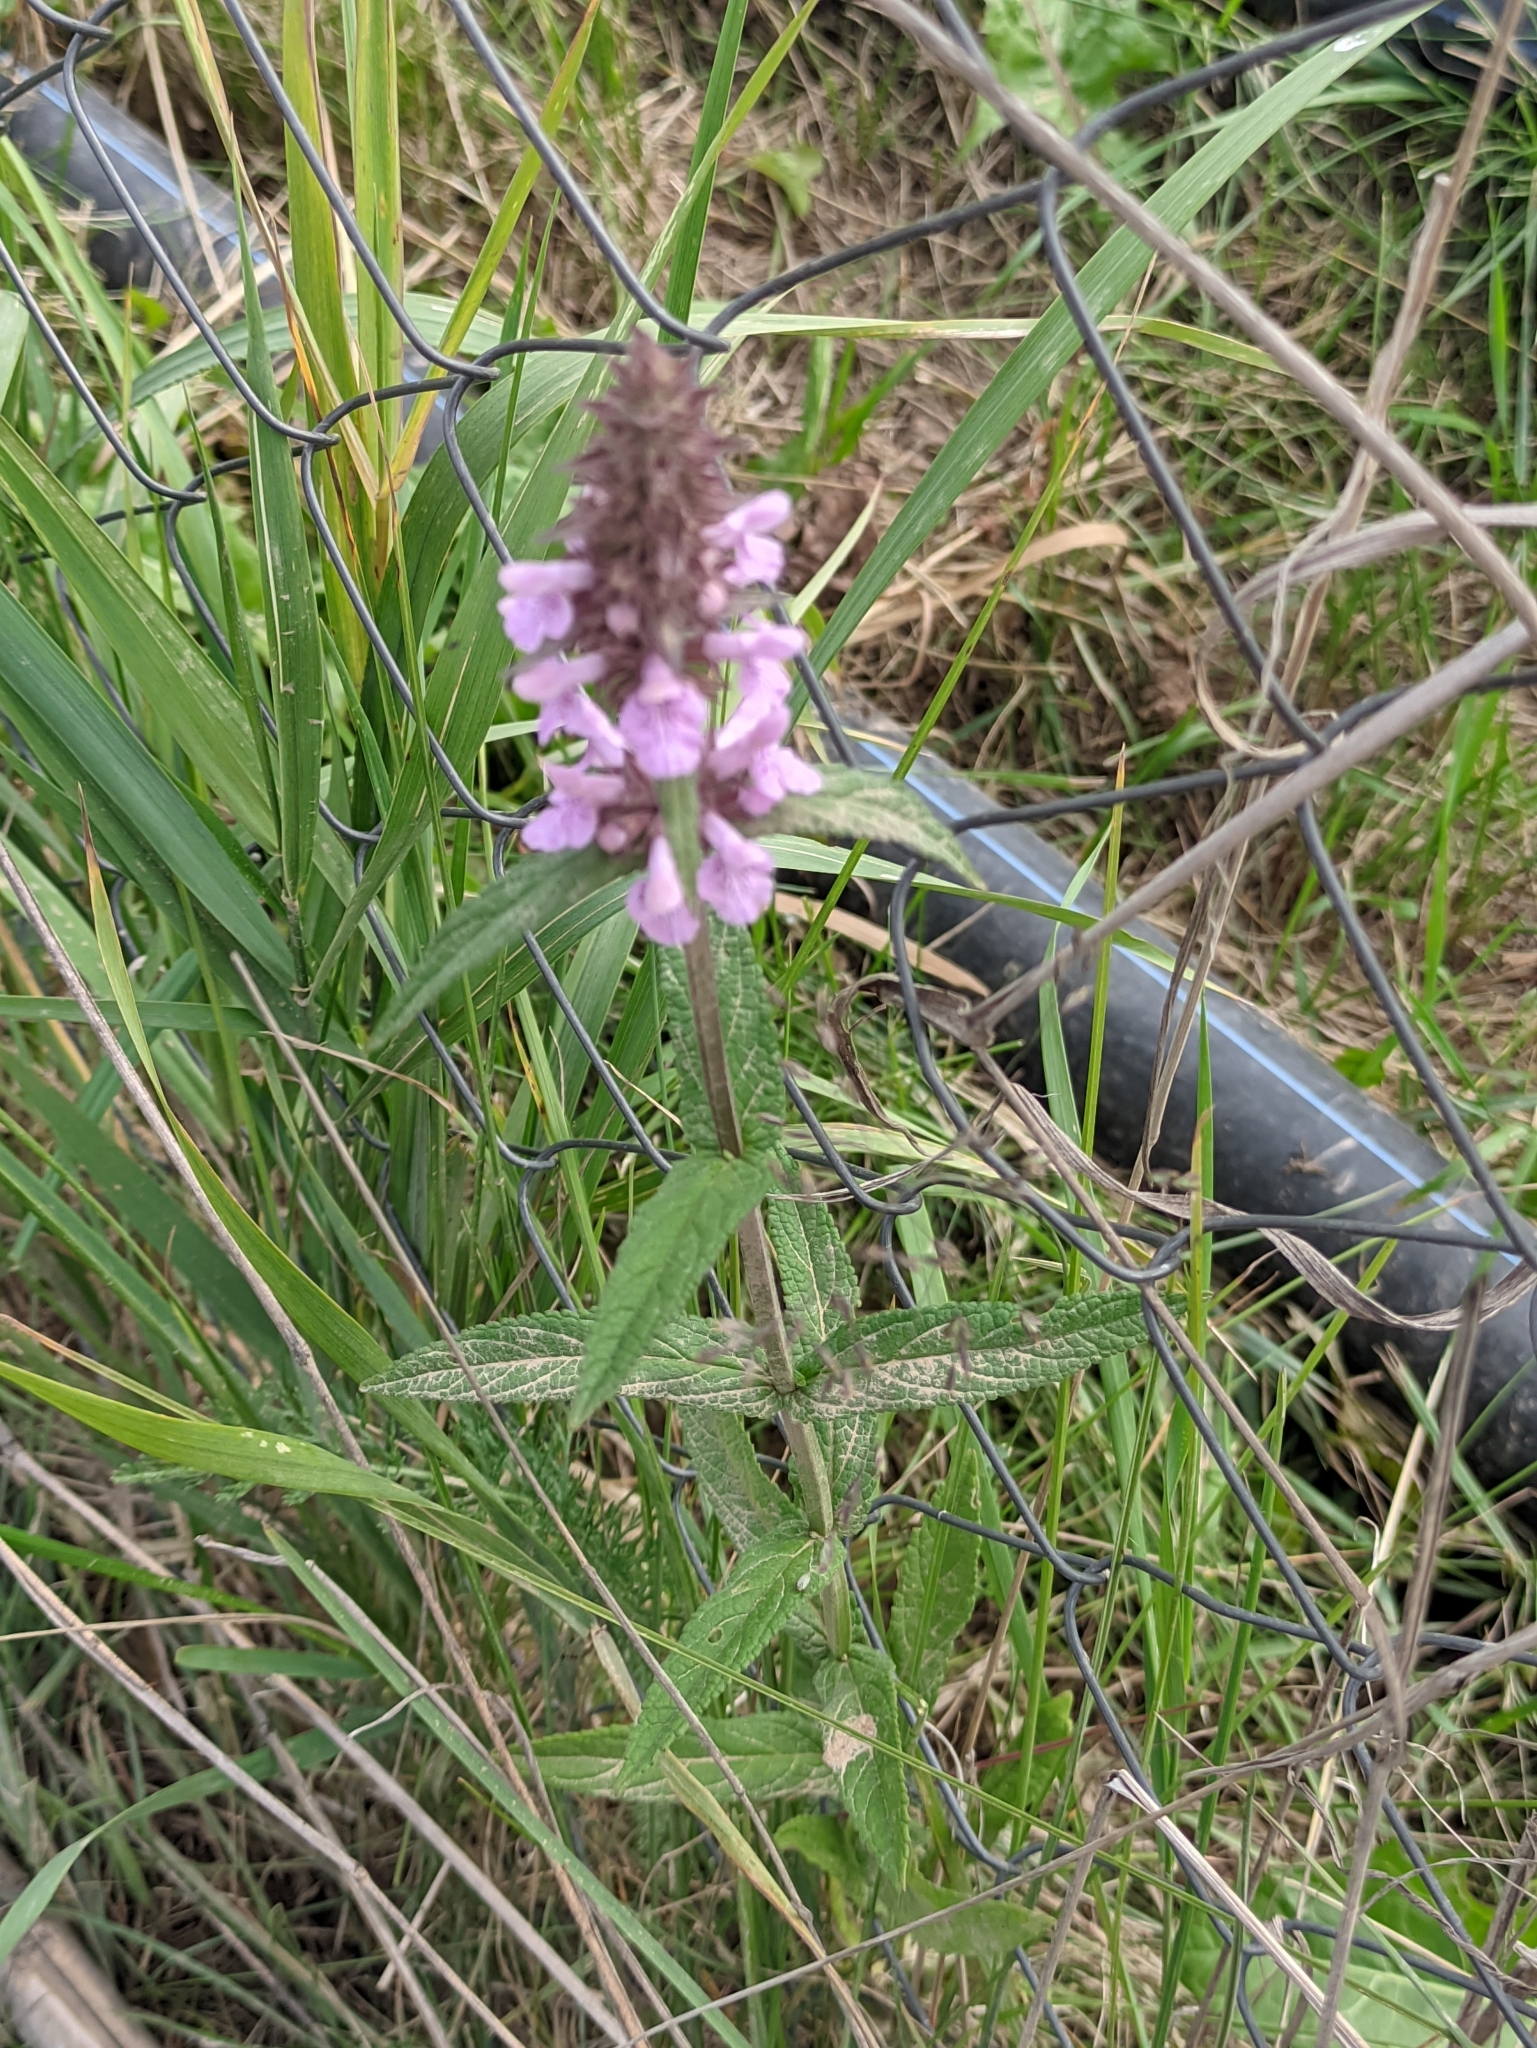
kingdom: Plantae
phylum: Tracheophyta
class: Magnoliopsida
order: Lamiales
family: Lamiaceae
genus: Stachys
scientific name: Stachys palustris
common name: Marsh woundwort
